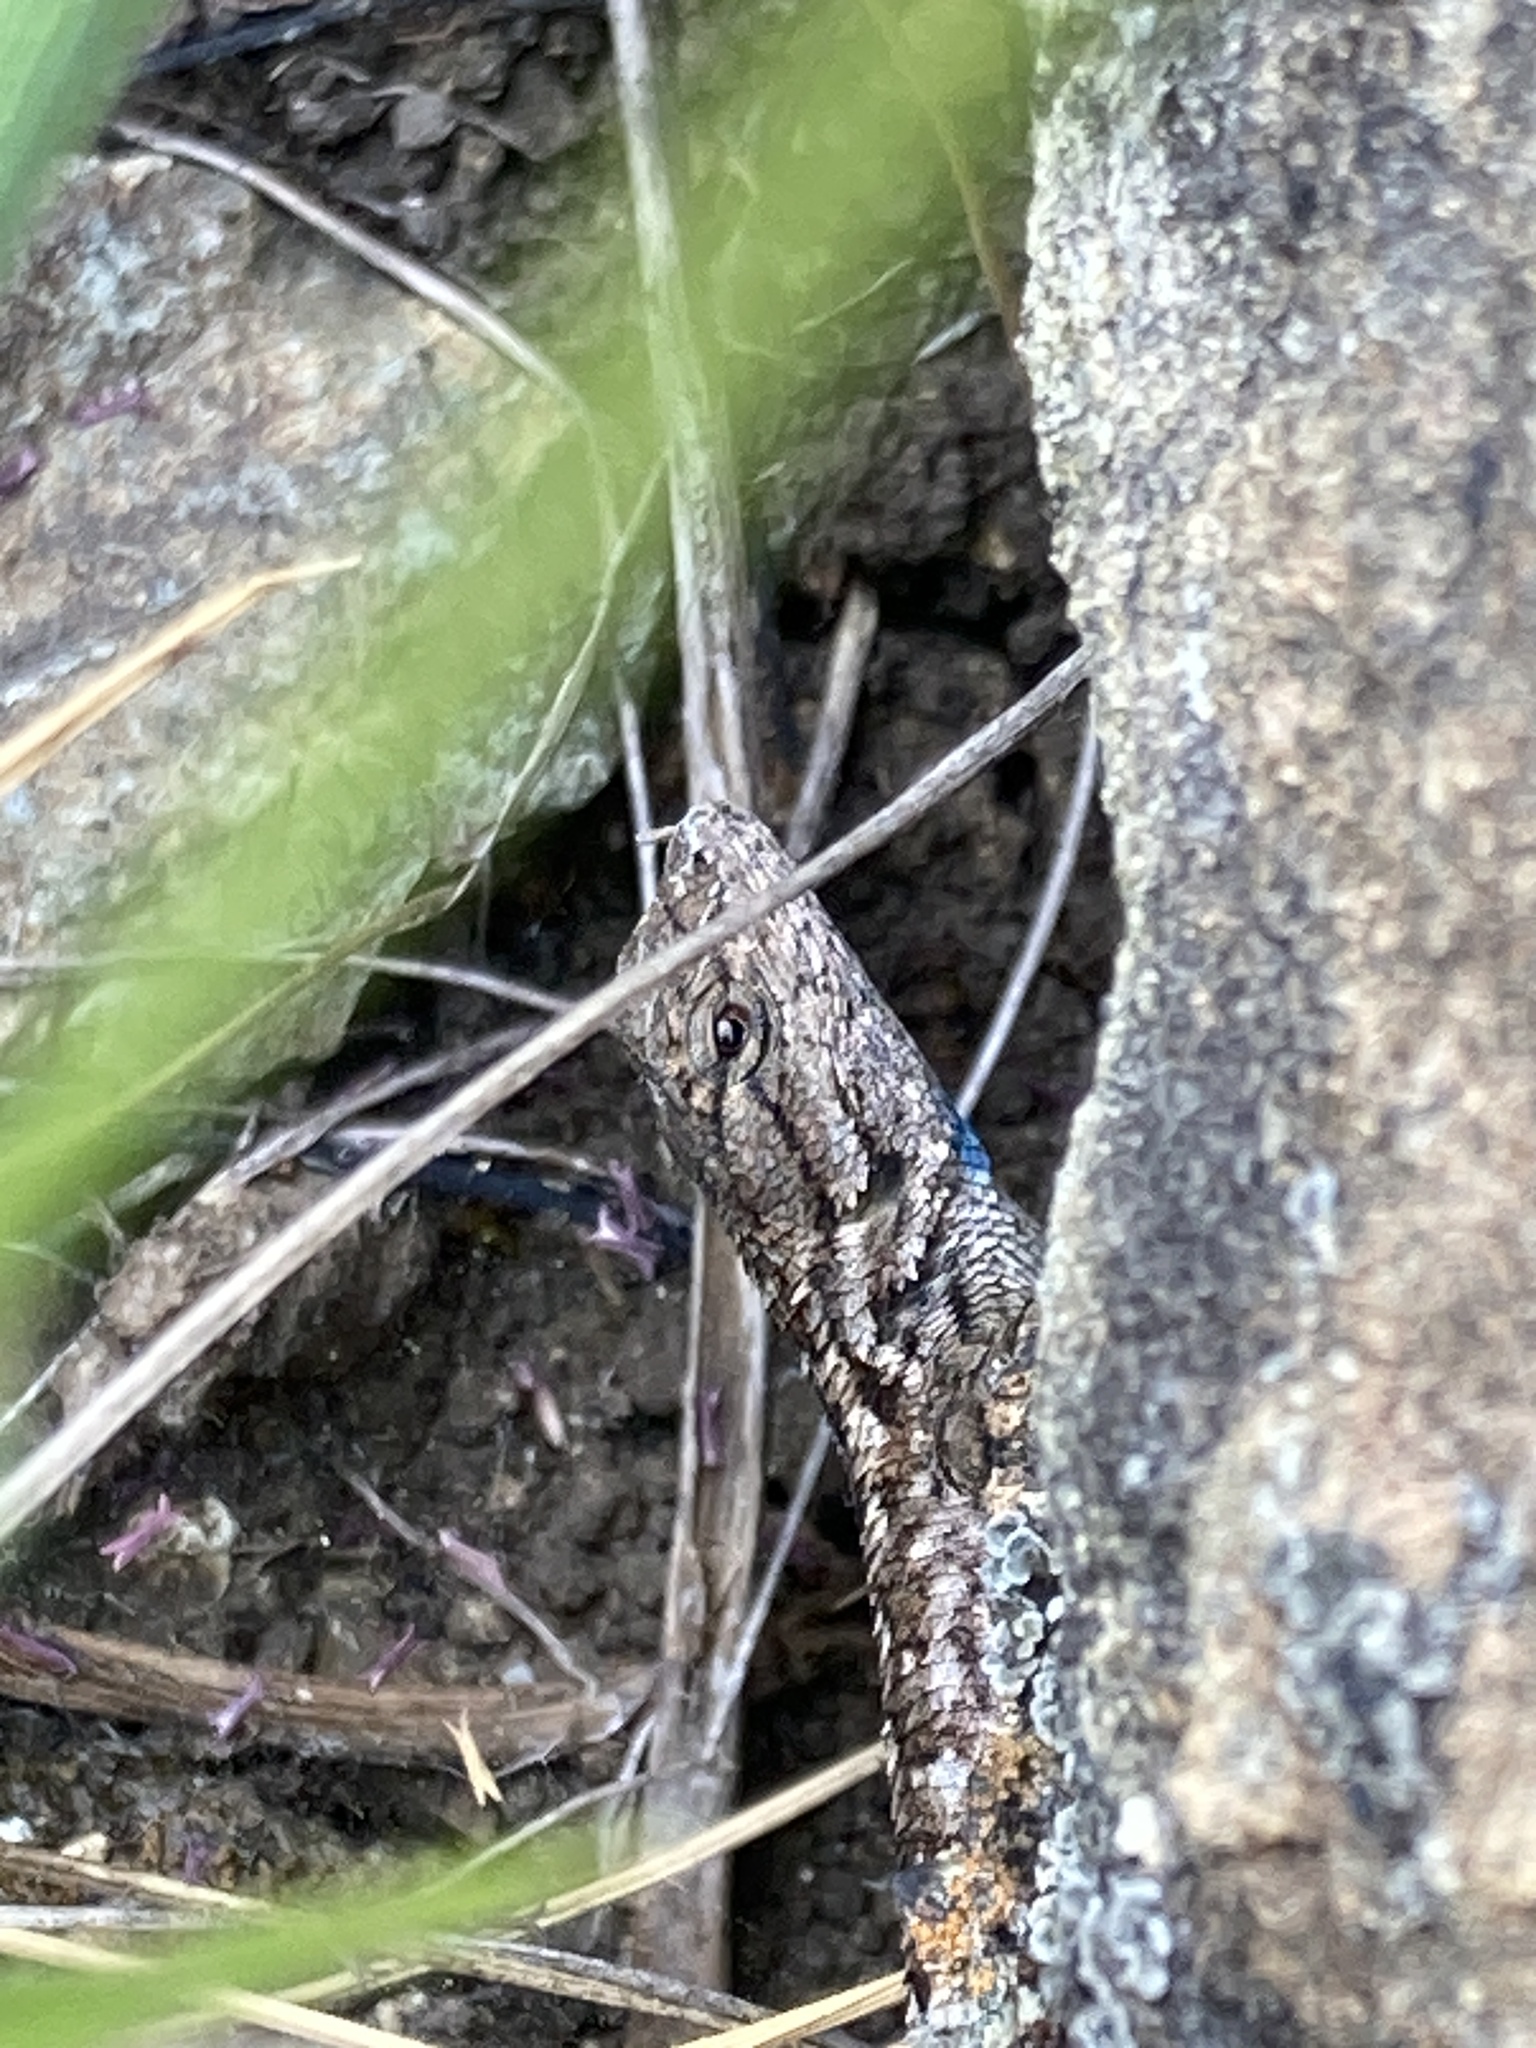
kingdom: Animalia
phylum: Chordata
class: Squamata
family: Phrynosomatidae
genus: Sceloporus
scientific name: Sceloporus occidentalis
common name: Western fence lizard
